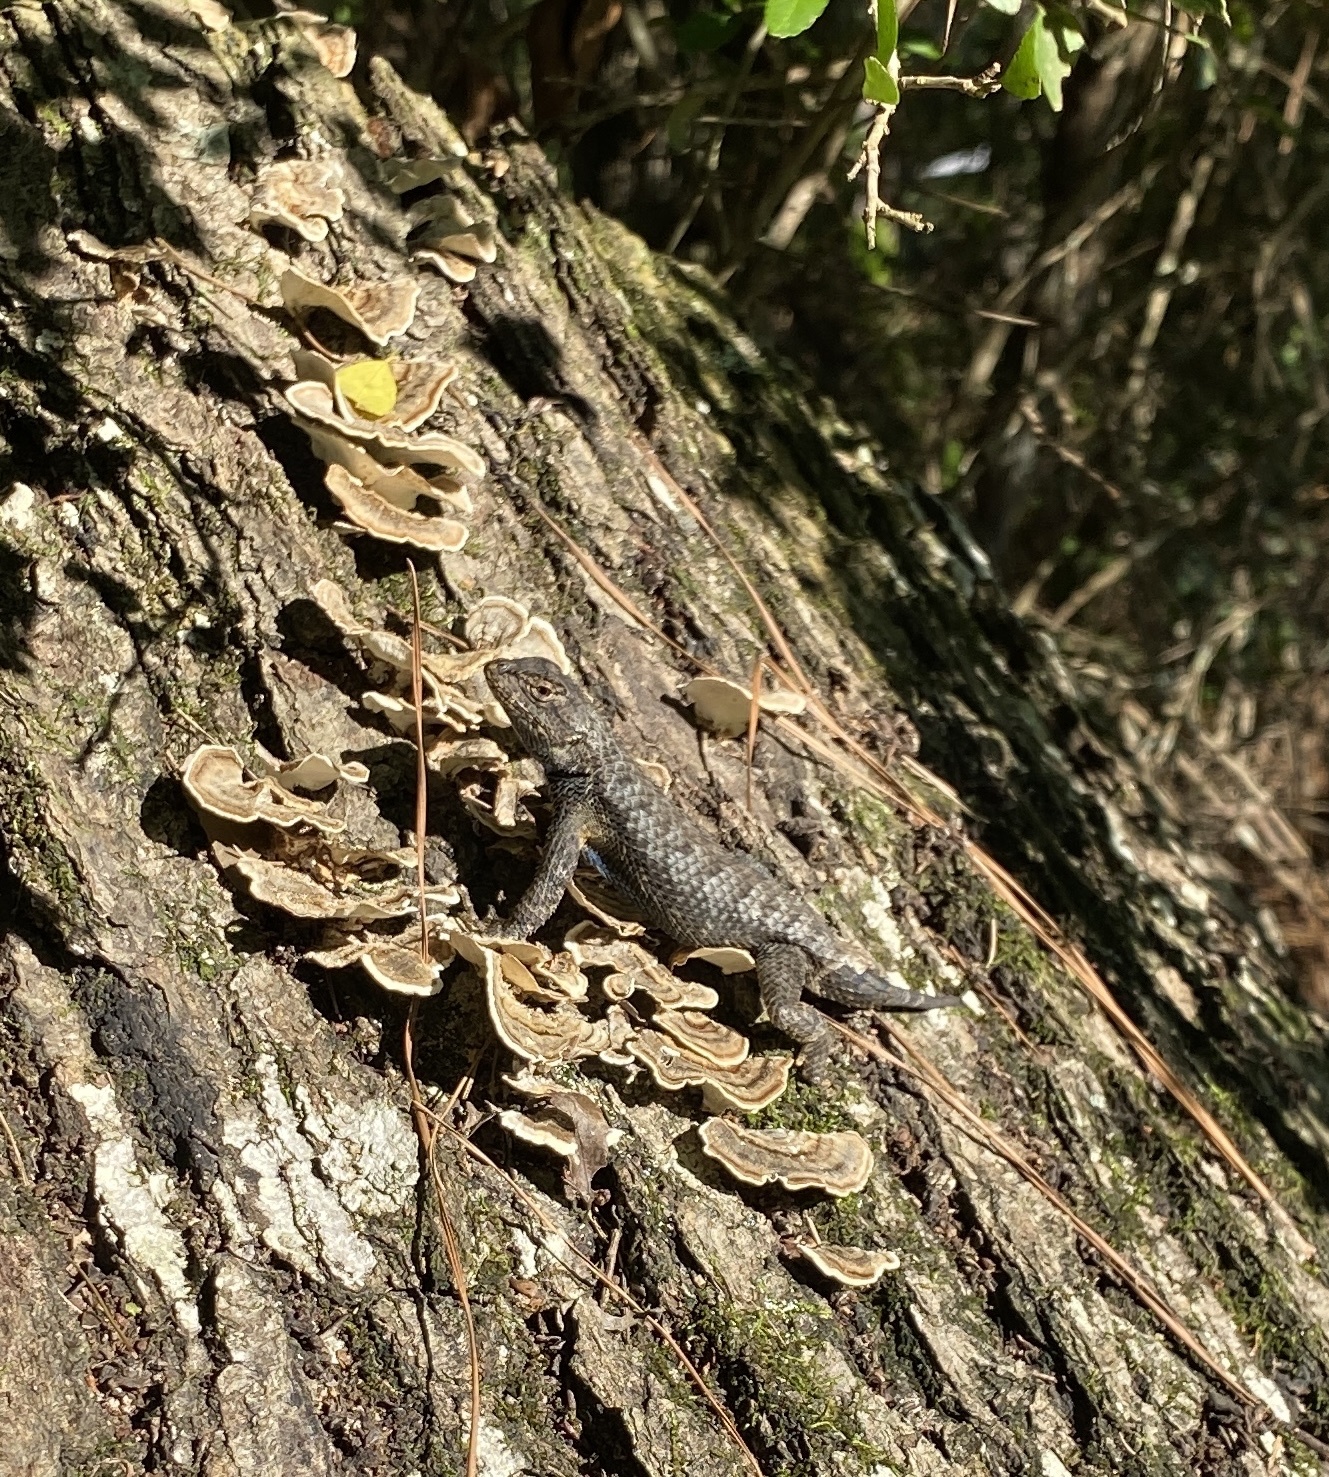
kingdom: Animalia
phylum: Chordata
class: Squamata
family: Phrynosomatidae
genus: Sceloporus
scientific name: Sceloporus consobrinus
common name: Southern prairie lizard
